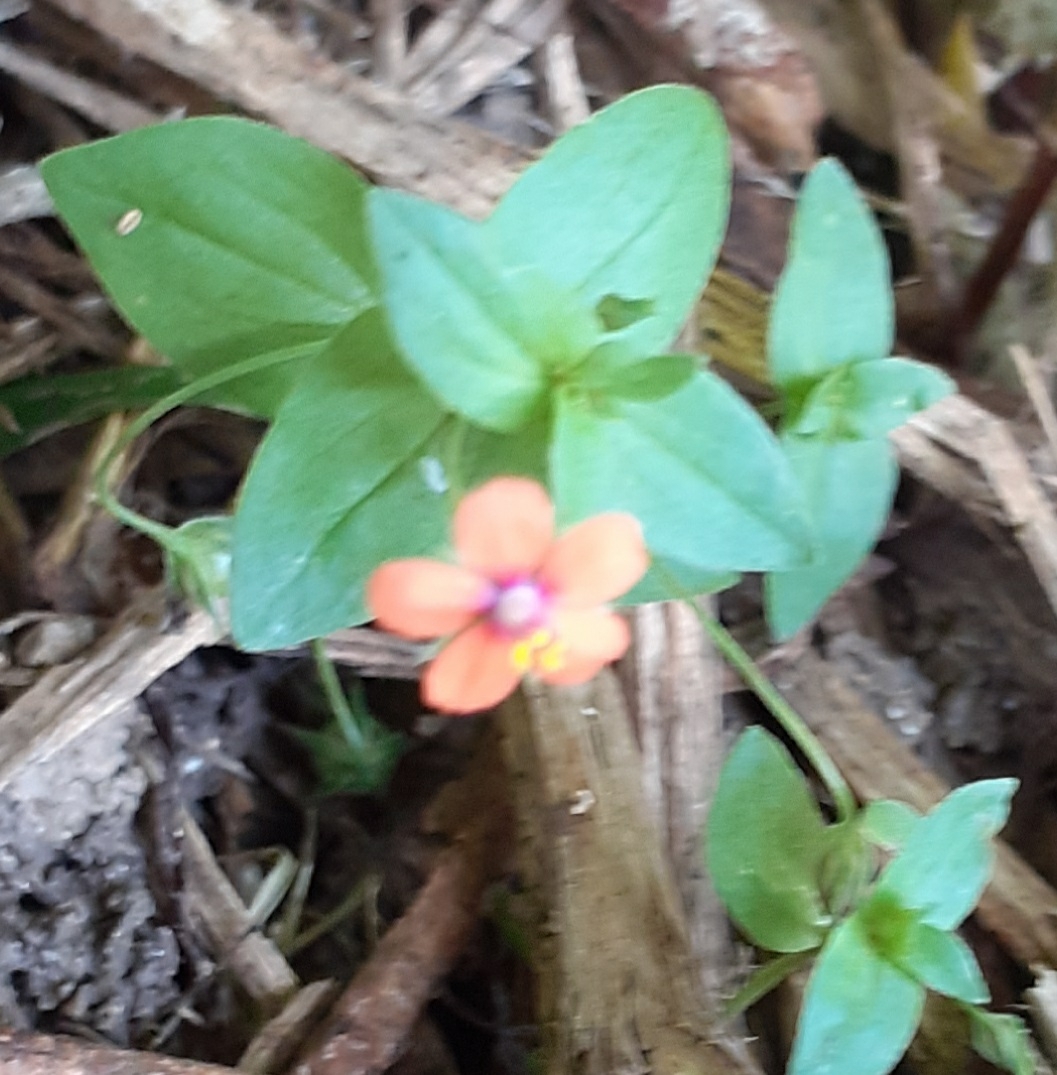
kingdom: Plantae
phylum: Tracheophyta
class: Magnoliopsida
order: Ericales
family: Primulaceae
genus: Lysimachia
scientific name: Lysimachia arvensis
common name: Scarlet pimpernel
